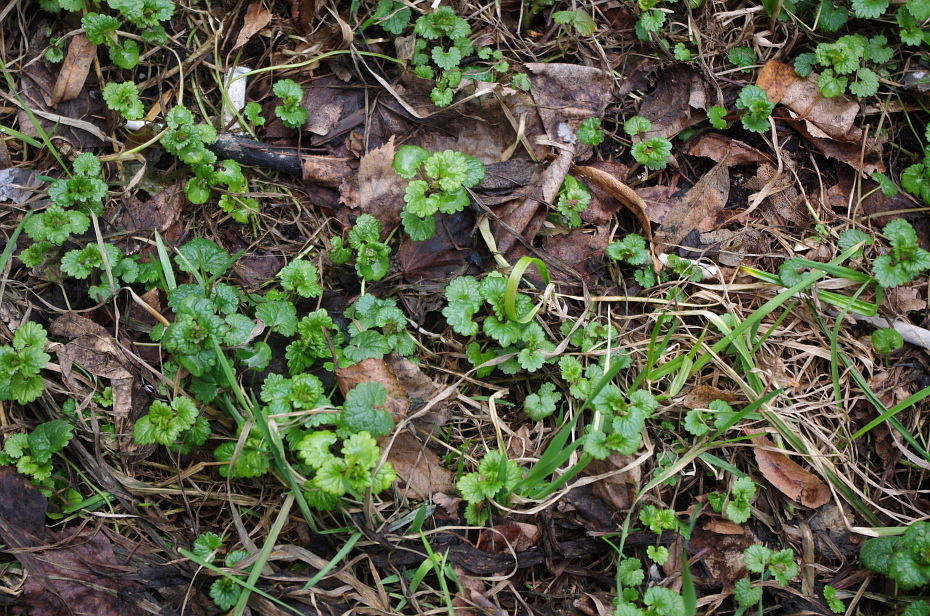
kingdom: Plantae
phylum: Tracheophyta
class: Magnoliopsida
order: Lamiales
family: Lamiaceae
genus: Glechoma
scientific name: Glechoma hederacea
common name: Ground ivy
